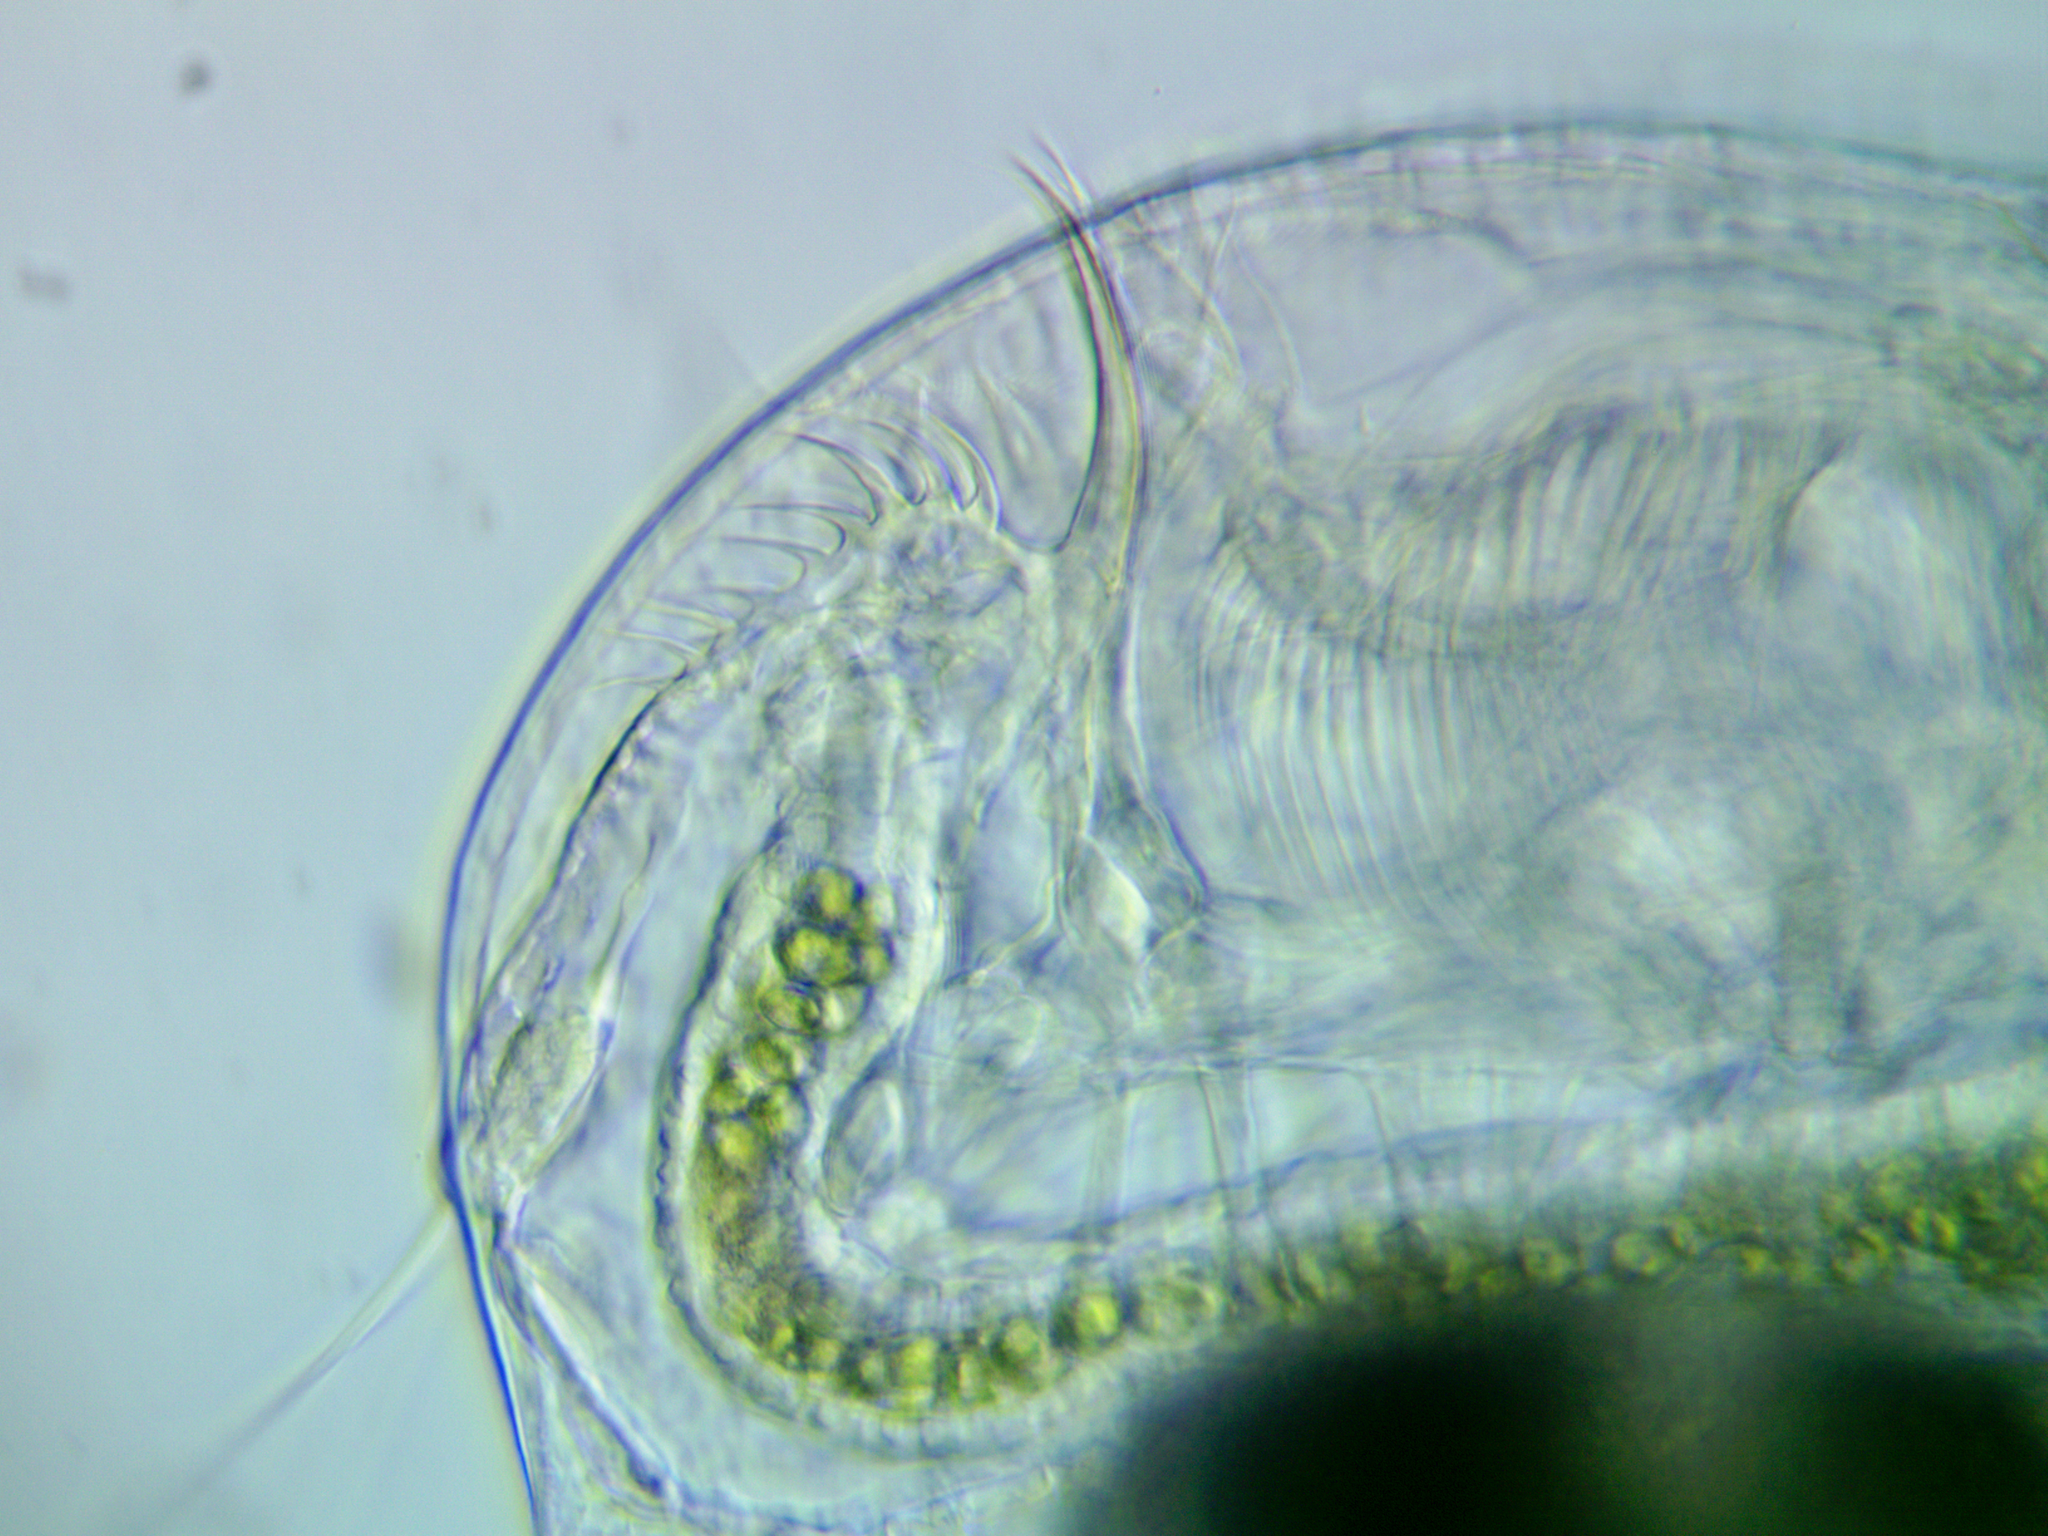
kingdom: Animalia
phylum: Arthropoda
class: Branchiopoda
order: Diplostraca
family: Daphniidae
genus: Ceriodaphnia
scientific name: Ceriodaphnia pulchella
